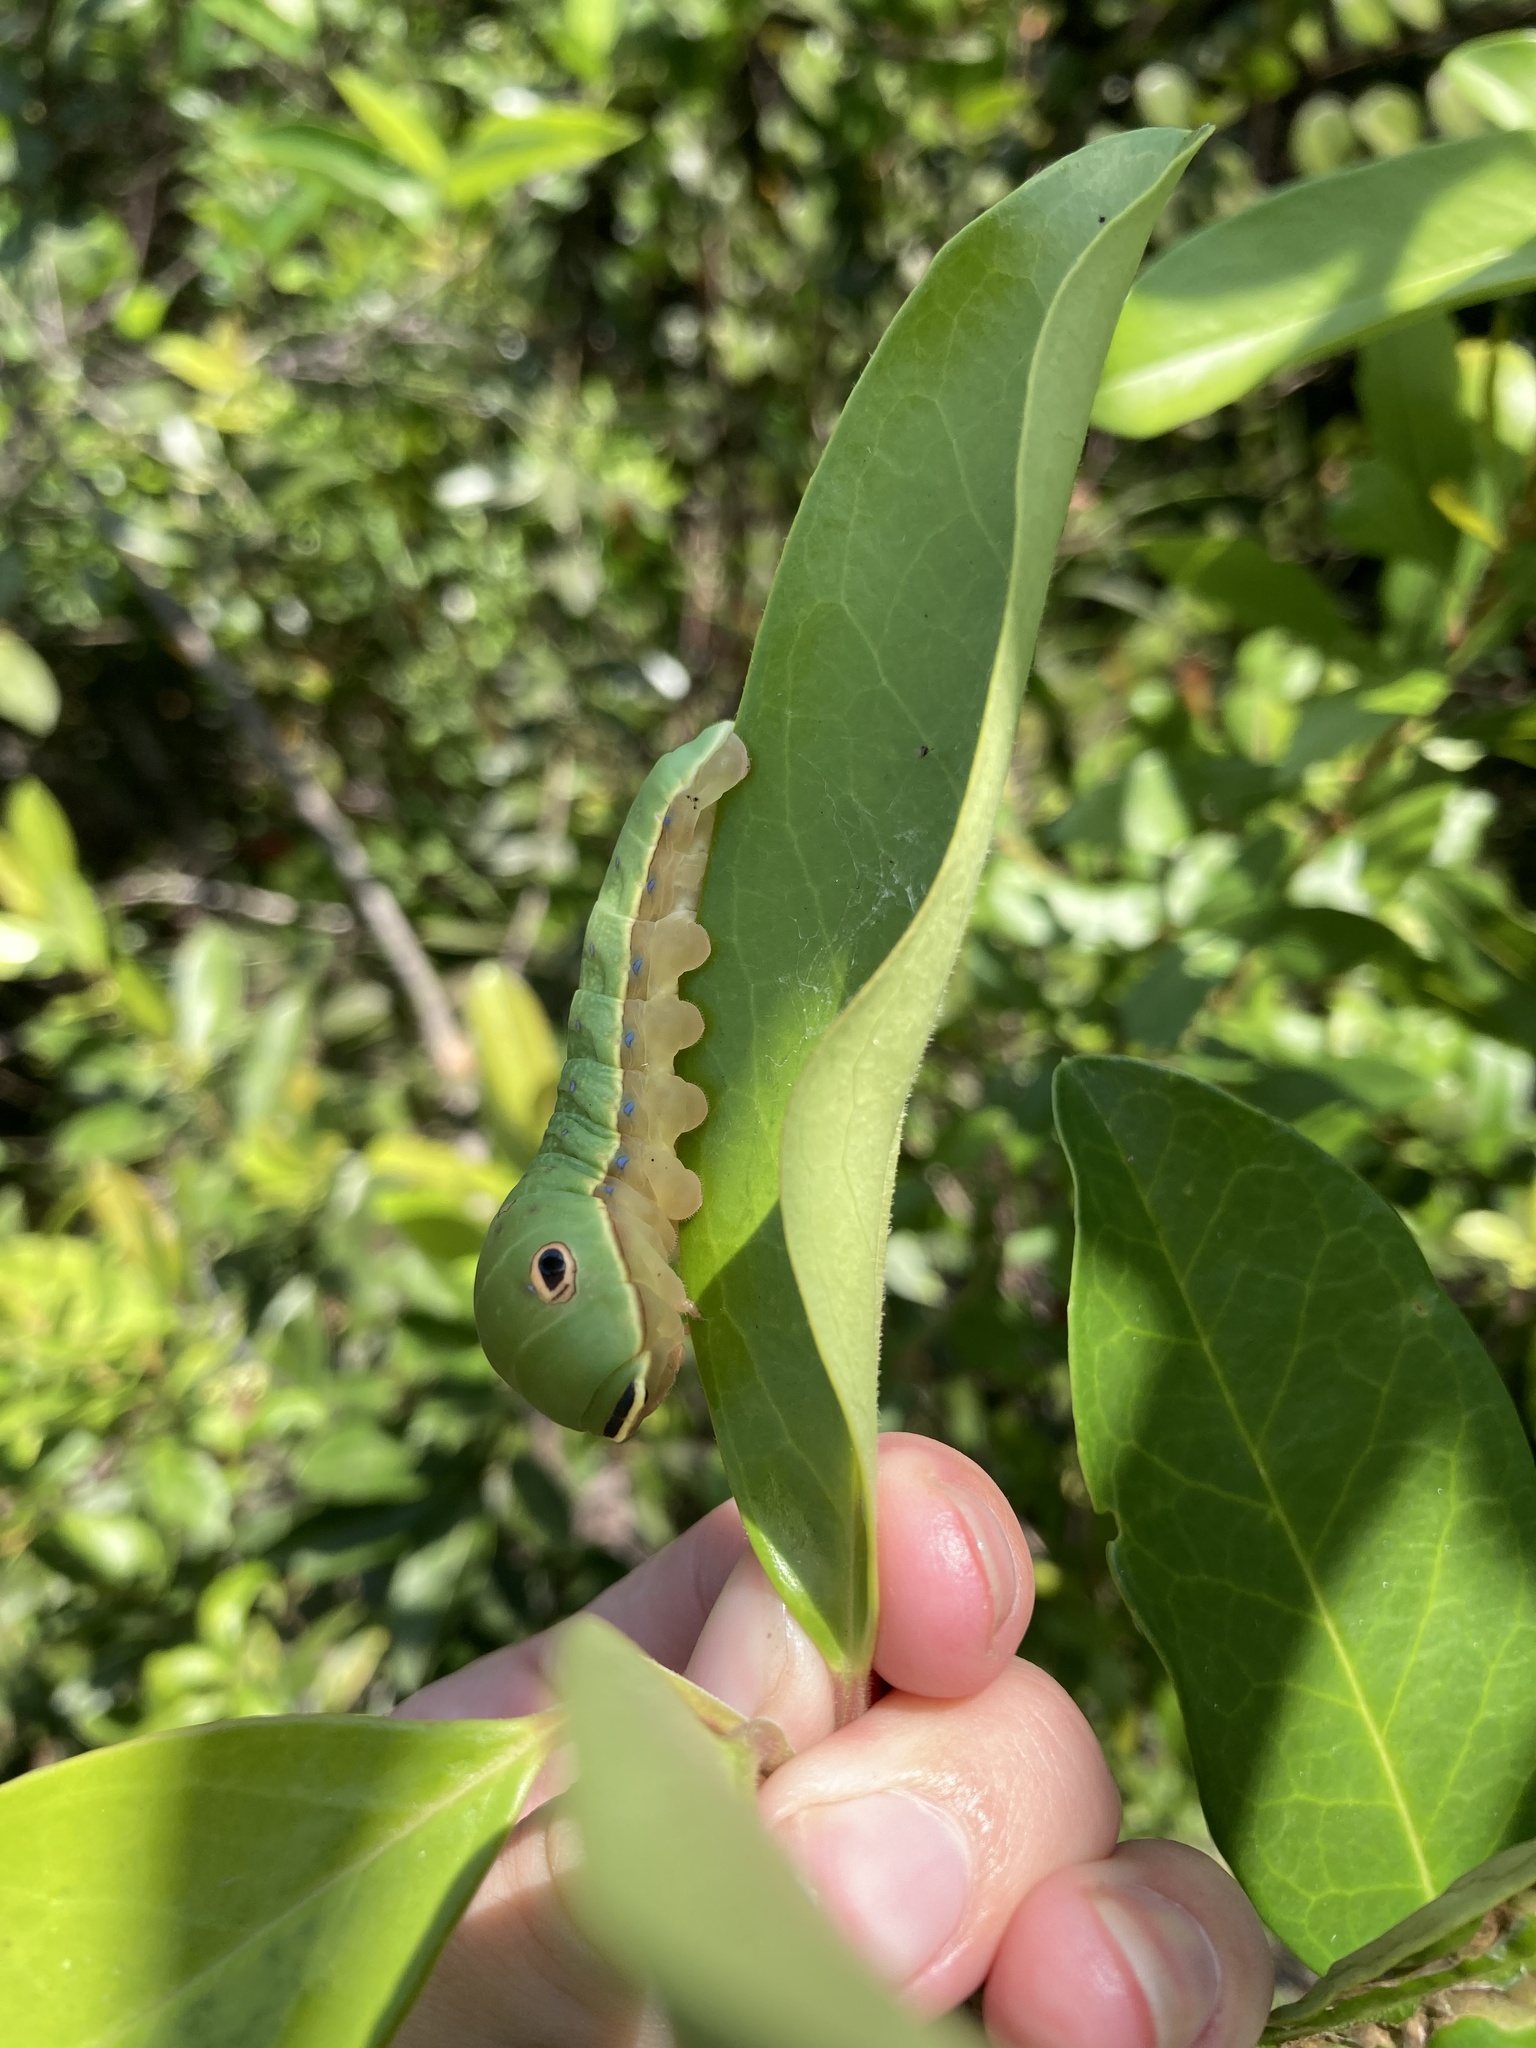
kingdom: Animalia
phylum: Arthropoda
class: Insecta
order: Lepidoptera
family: Papilionidae
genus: Papilio
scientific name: Papilio palamedes
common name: Palamedes swallowtail
